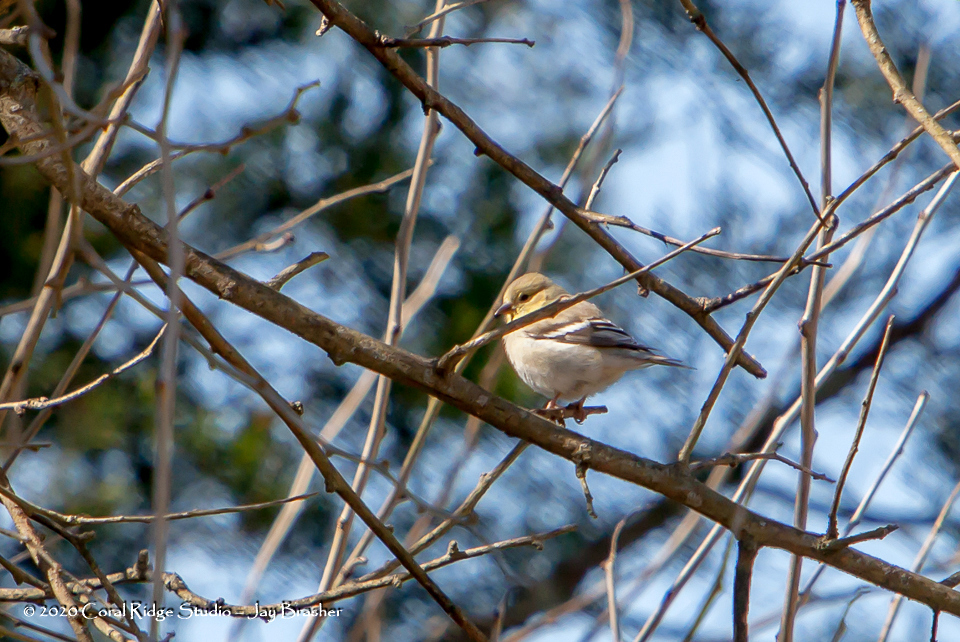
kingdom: Animalia
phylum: Chordata
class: Aves
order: Passeriformes
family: Fringillidae
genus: Spinus
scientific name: Spinus tristis
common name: American goldfinch
